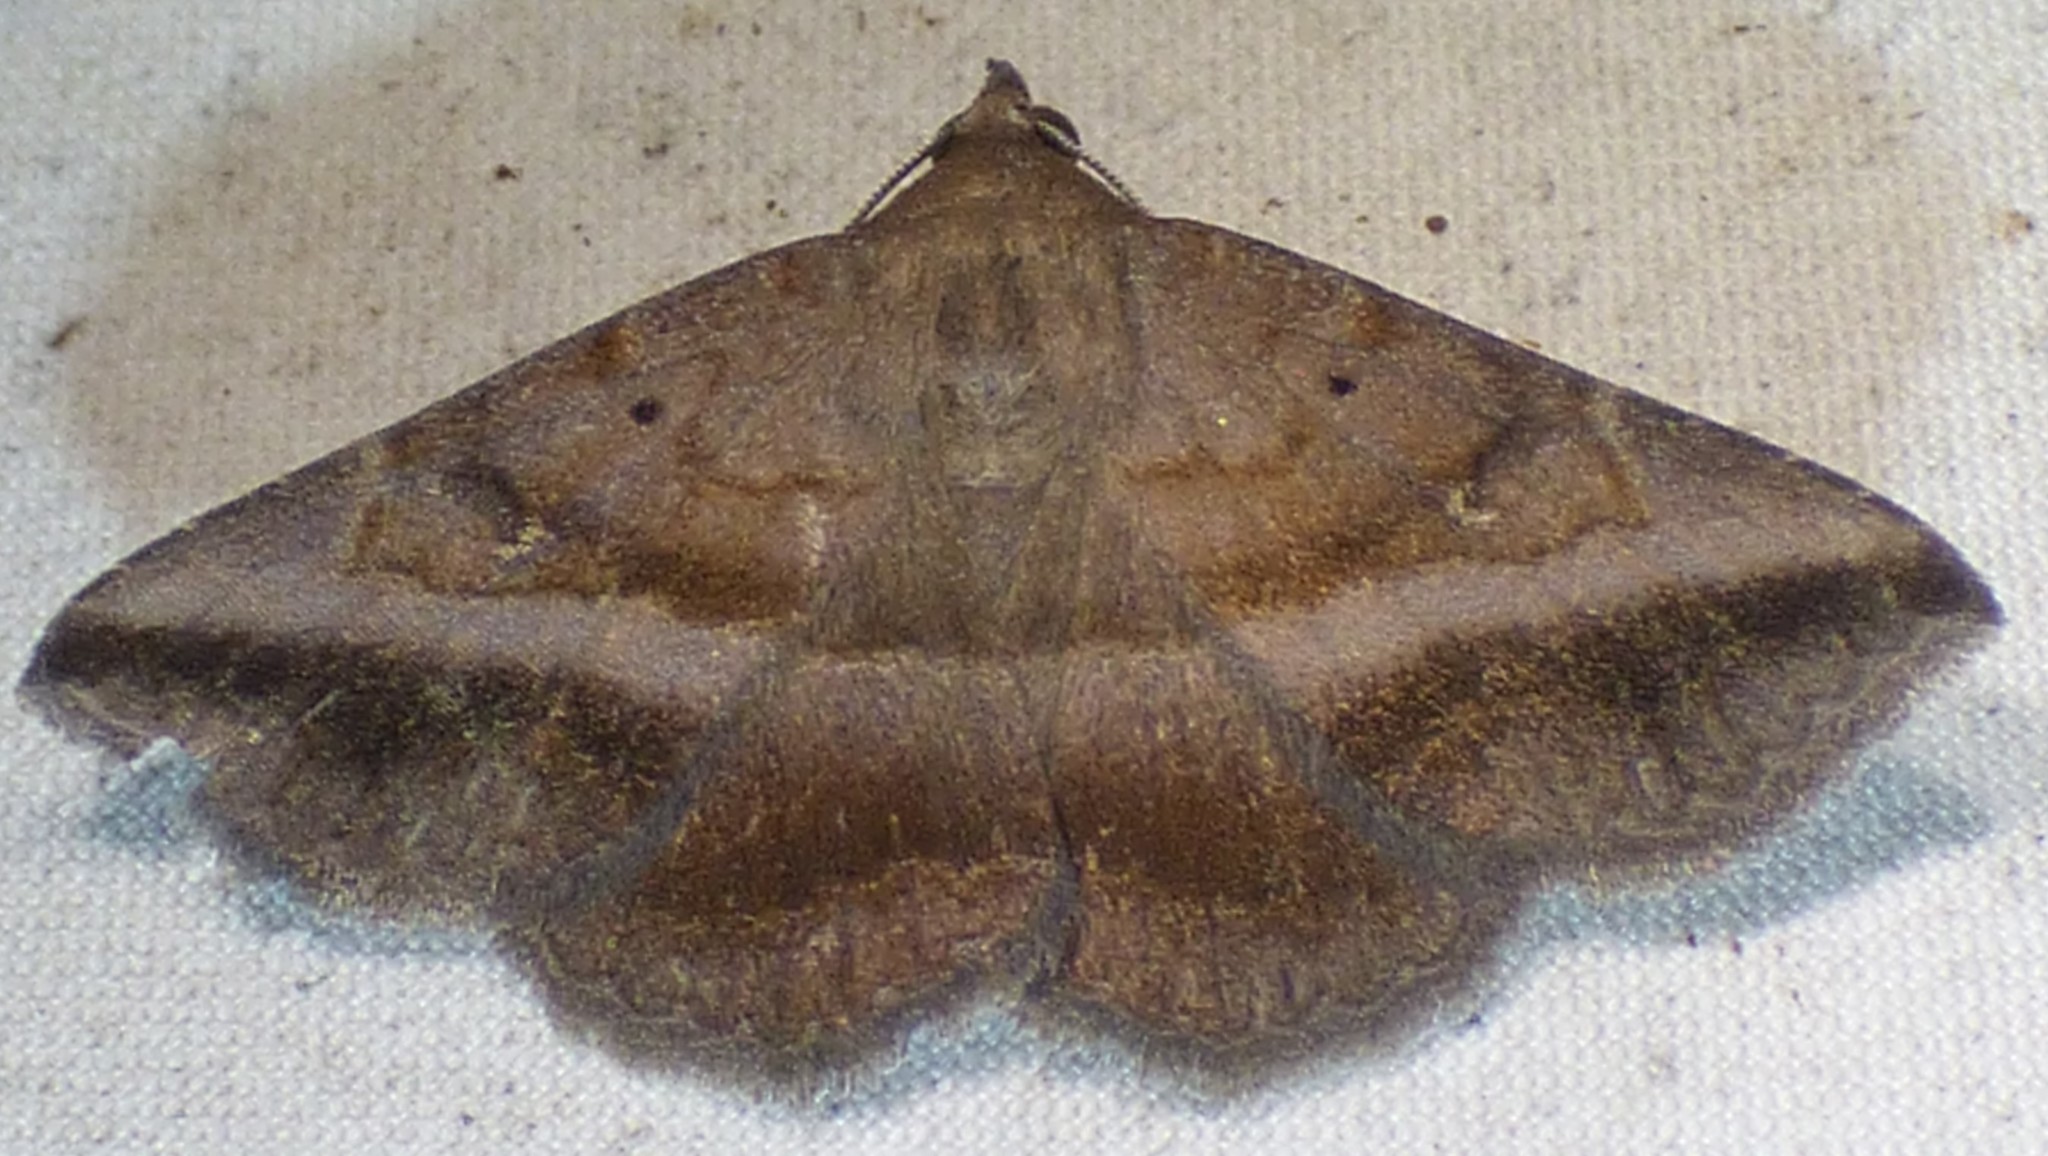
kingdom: Animalia
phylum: Arthropoda
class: Insecta
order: Lepidoptera
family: Erebidae
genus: Lesmone
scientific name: Lesmone detrahens
